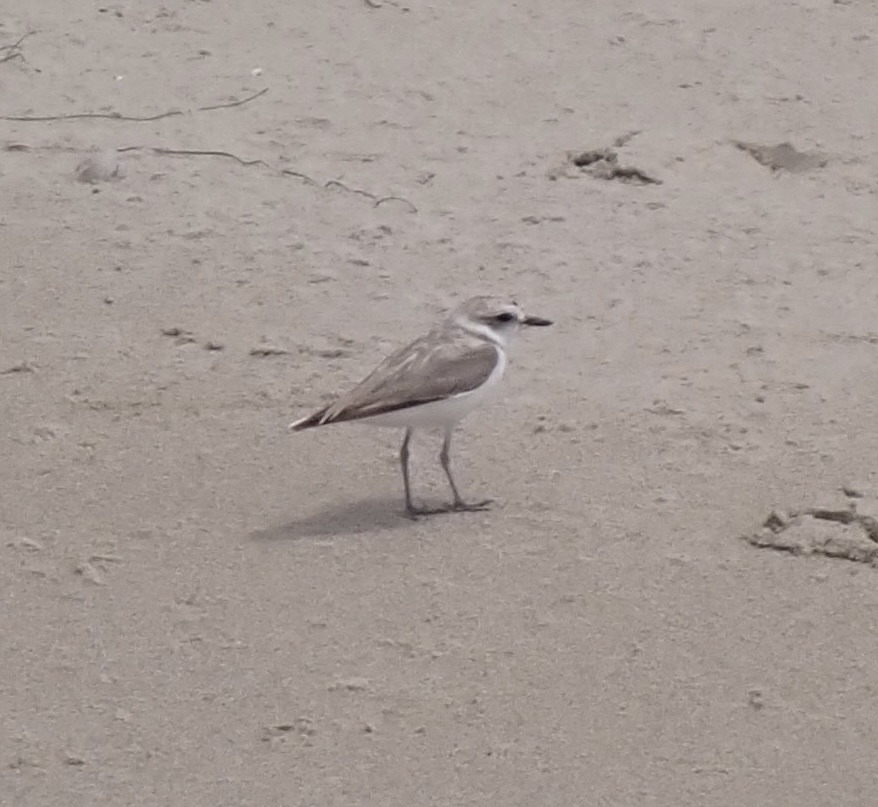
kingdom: Animalia
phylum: Chordata
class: Aves
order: Charadriiformes
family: Charadriidae
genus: Anarhynchus
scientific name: Anarhynchus
